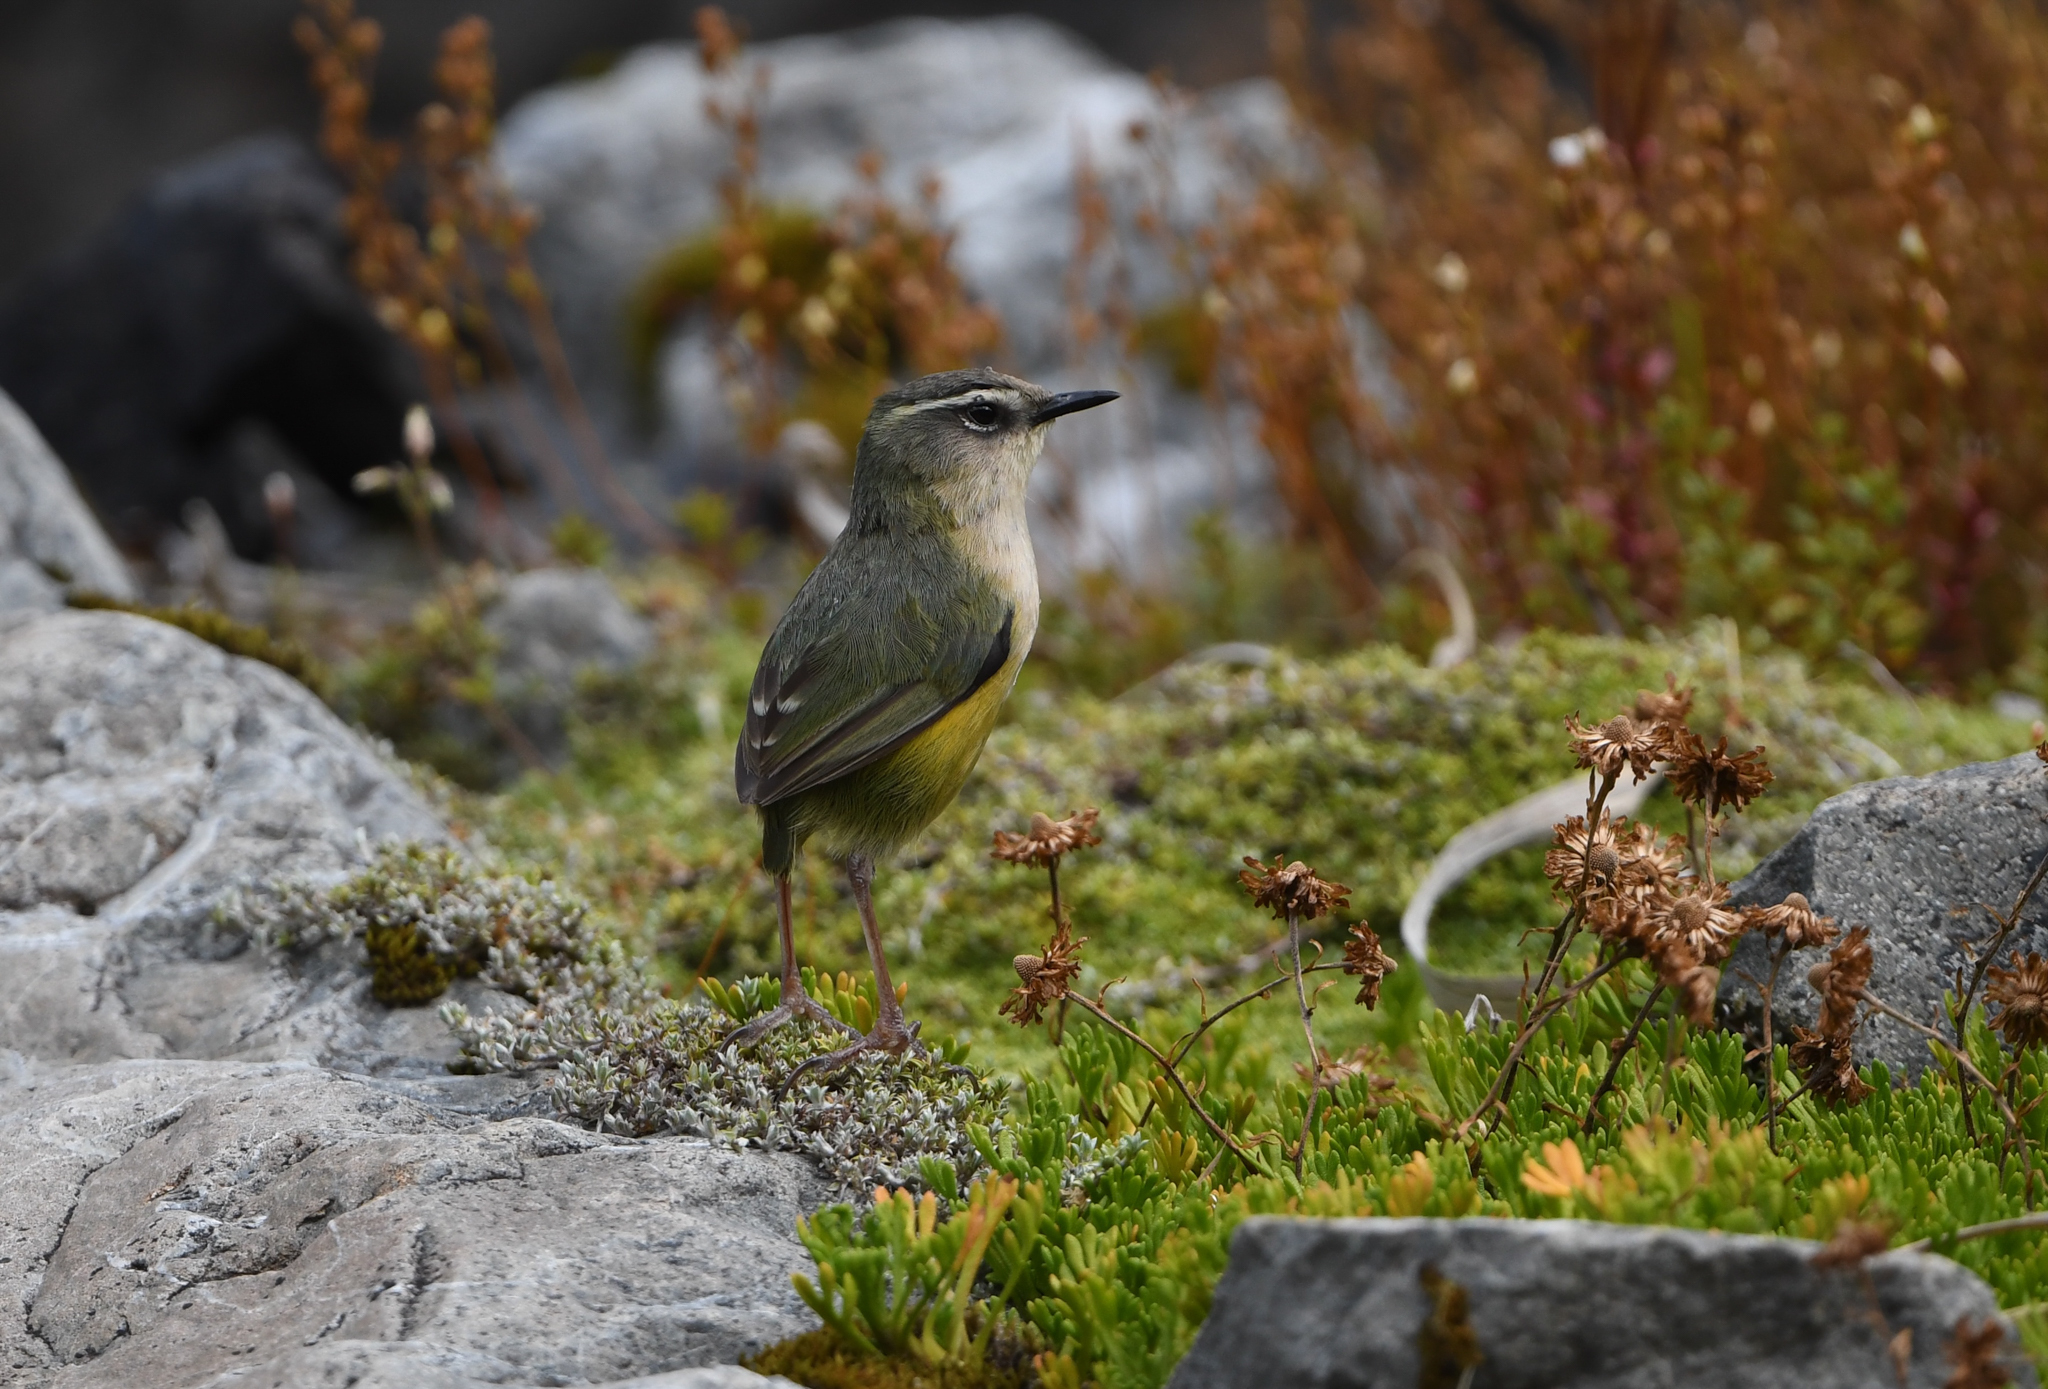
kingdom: Animalia
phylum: Chordata
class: Aves
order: Passeriformes
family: Acanthisittidae
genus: Acanthisitta
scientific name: Acanthisitta chloris
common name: Rifleman
